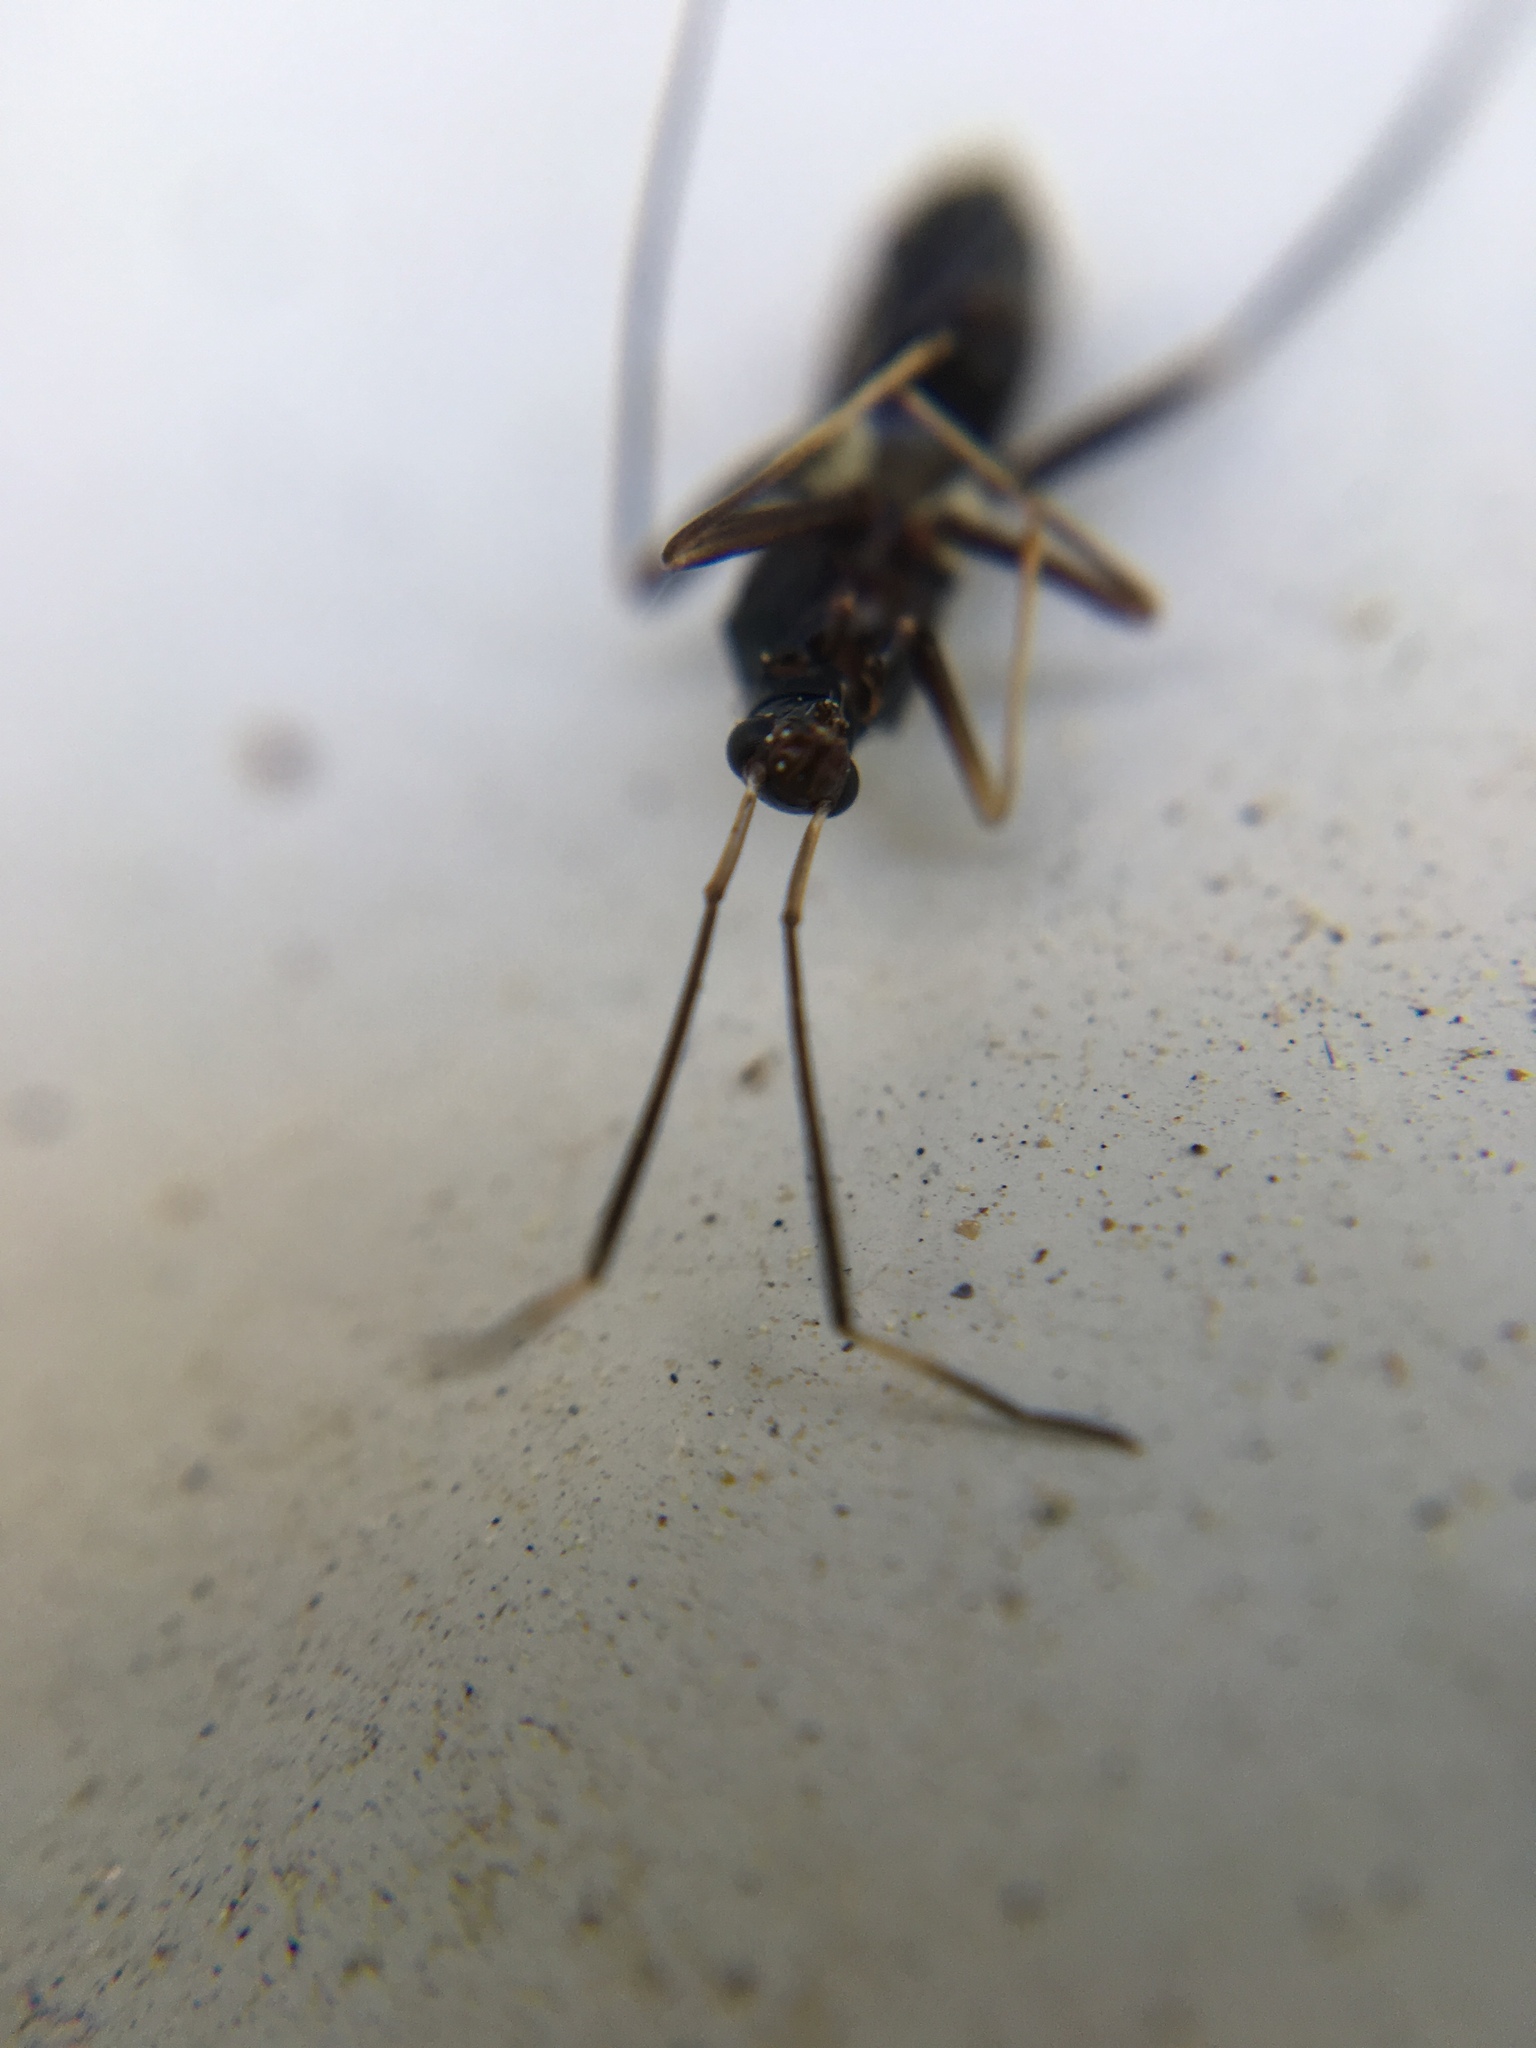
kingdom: Animalia
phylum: Arthropoda
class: Insecta
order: Hemiptera
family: Miridae
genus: Pseudoxenetus
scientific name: Pseudoxenetus regalis
